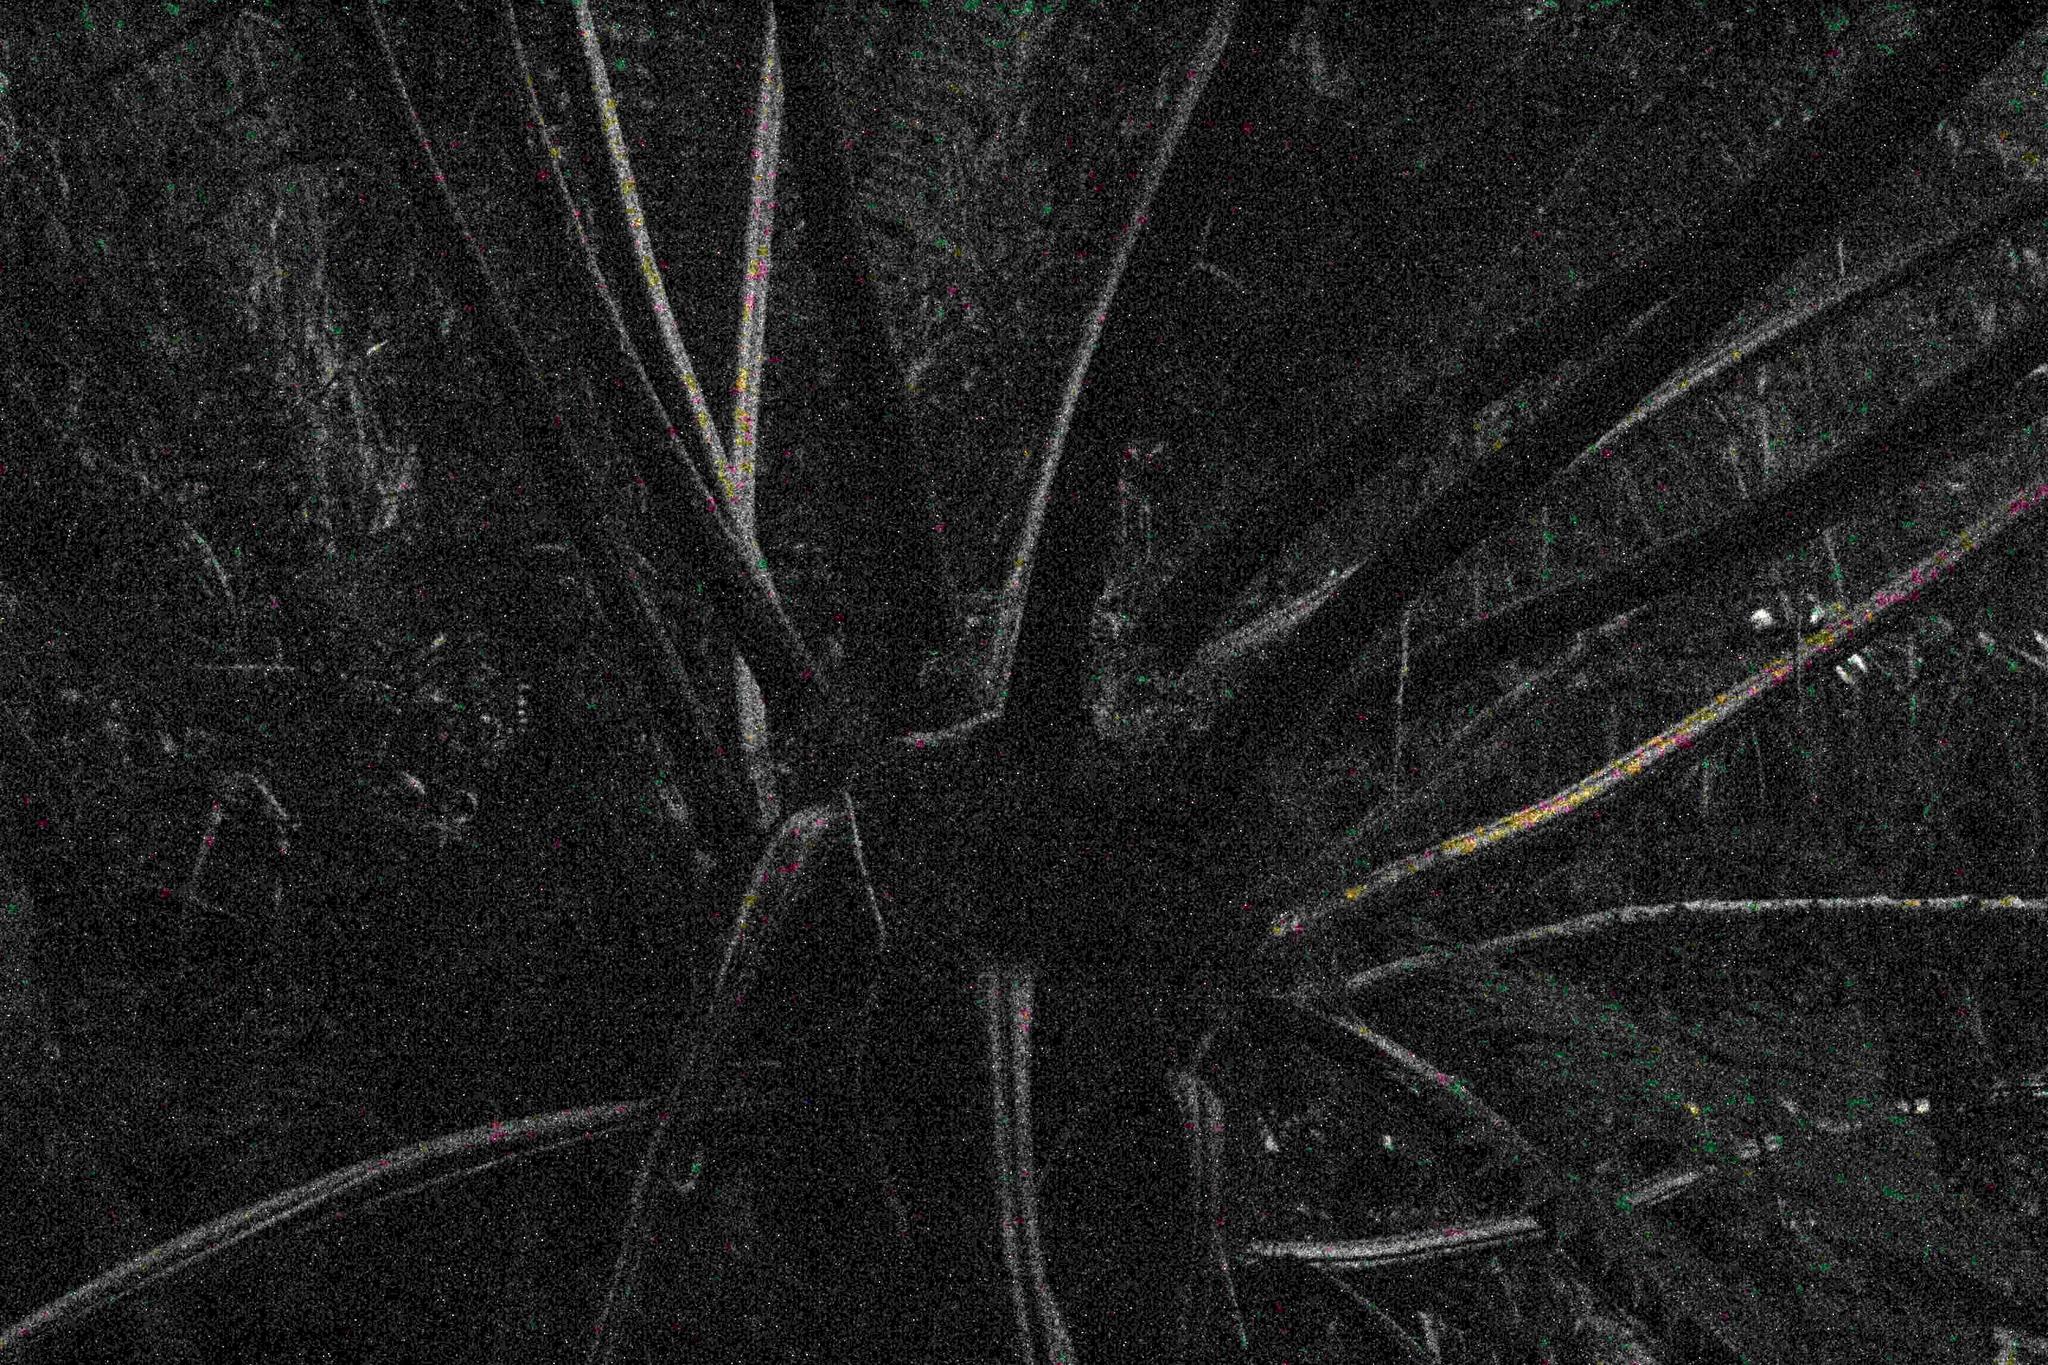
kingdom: Plantae
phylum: Tracheophyta
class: Polypodiopsida
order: Cyatheales
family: Cyatheaceae
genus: Gymnosphaera
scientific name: Gymnosphaera capensis
